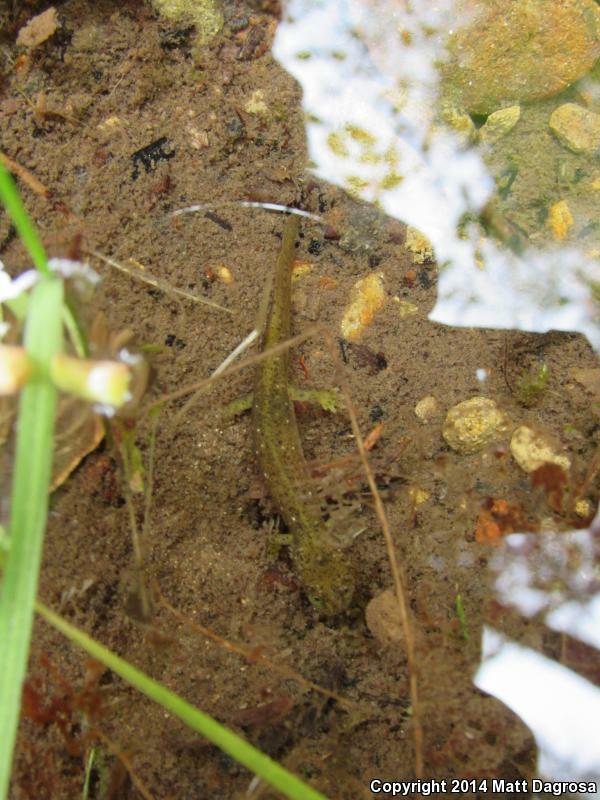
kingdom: Animalia
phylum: Chordata
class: Amphibia
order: Caudata
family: Rhyacotritonidae
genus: Rhyacotriton
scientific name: Rhyacotriton variegatus
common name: Southern torrent salamander
